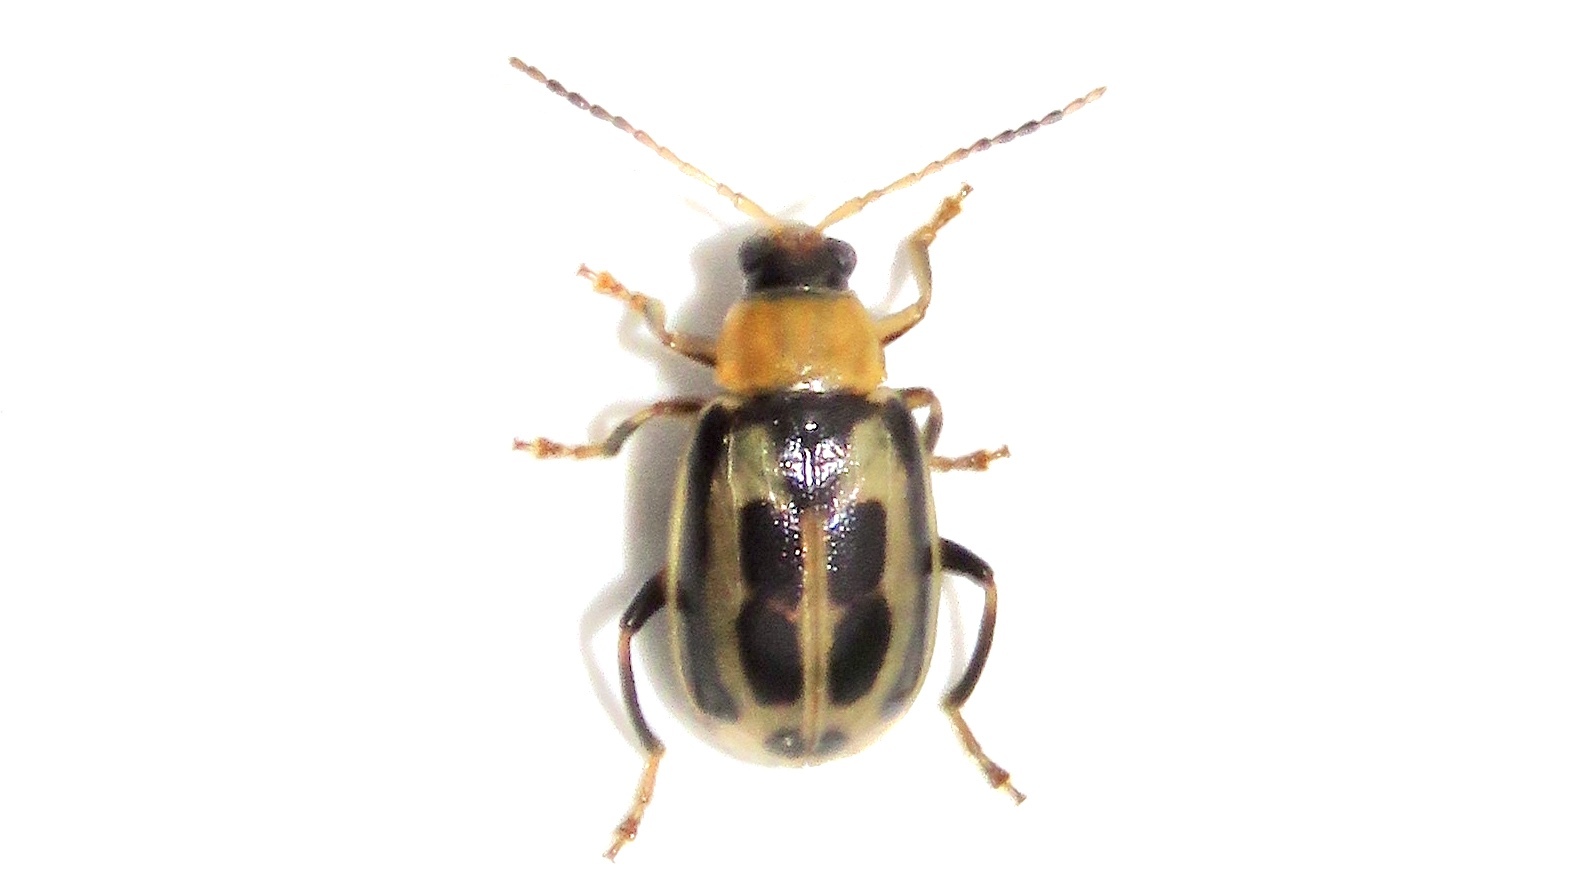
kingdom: Animalia
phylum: Arthropoda
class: Insecta
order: Coleoptera
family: Chrysomelidae
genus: Cerotoma
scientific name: Cerotoma trifurcata
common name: Bean leaf beetle
